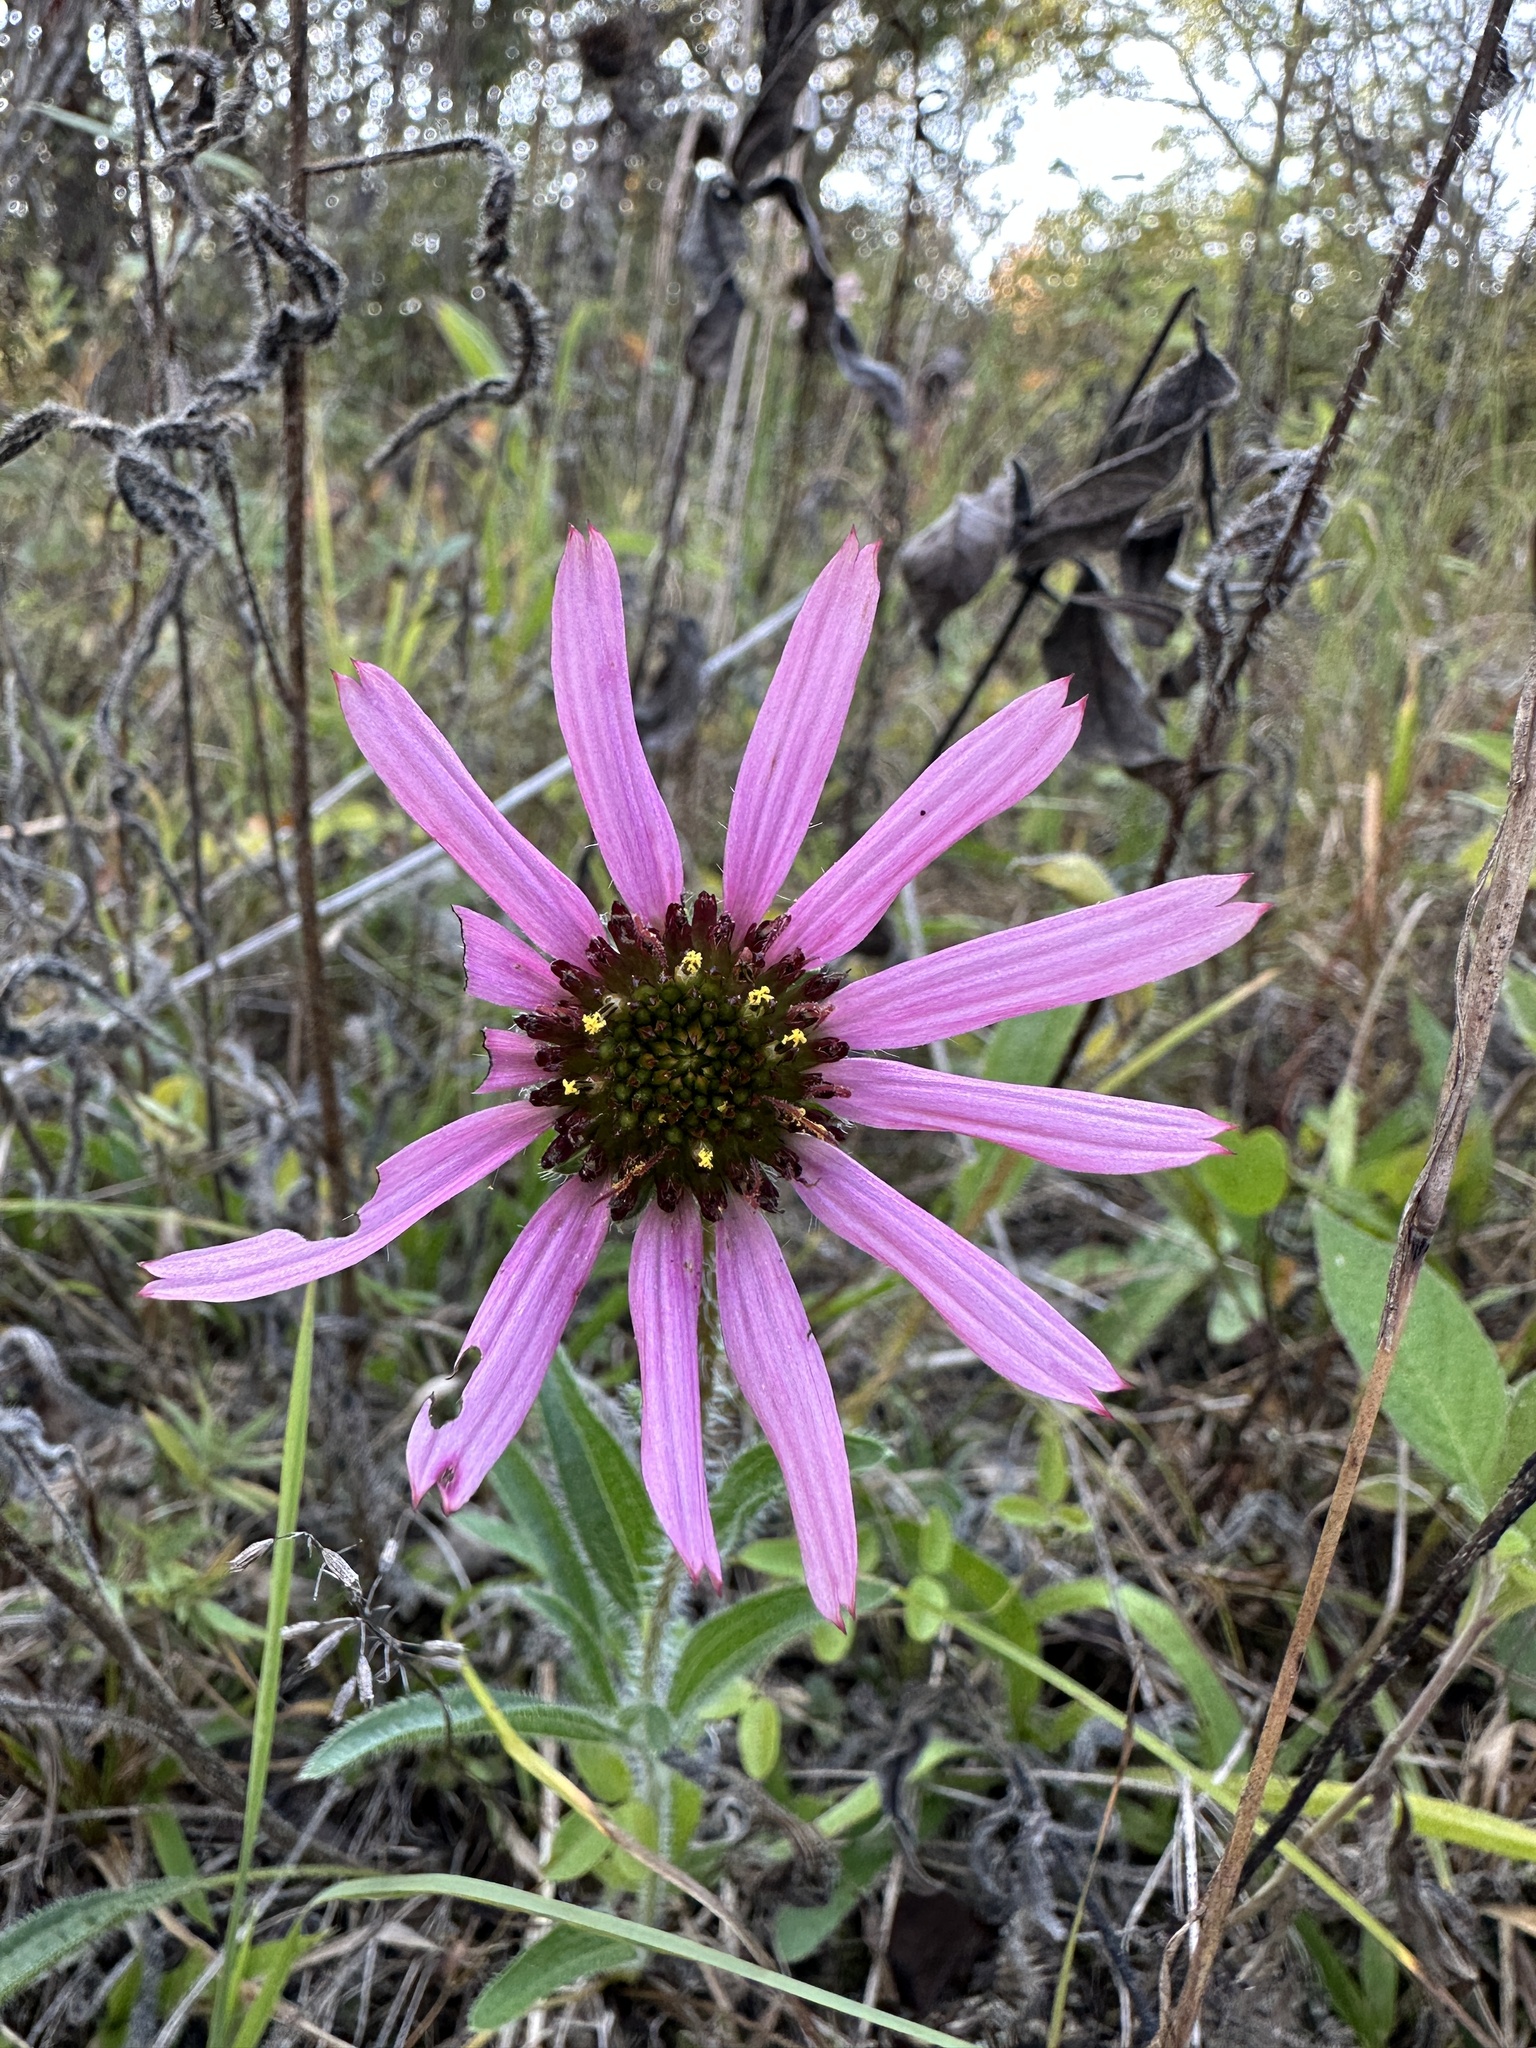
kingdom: Plantae
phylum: Tracheophyta
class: Magnoliopsida
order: Asterales
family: Asteraceae
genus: Echinacea
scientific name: Echinacea tennesseensis
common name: Tennessee purple-coneflower
